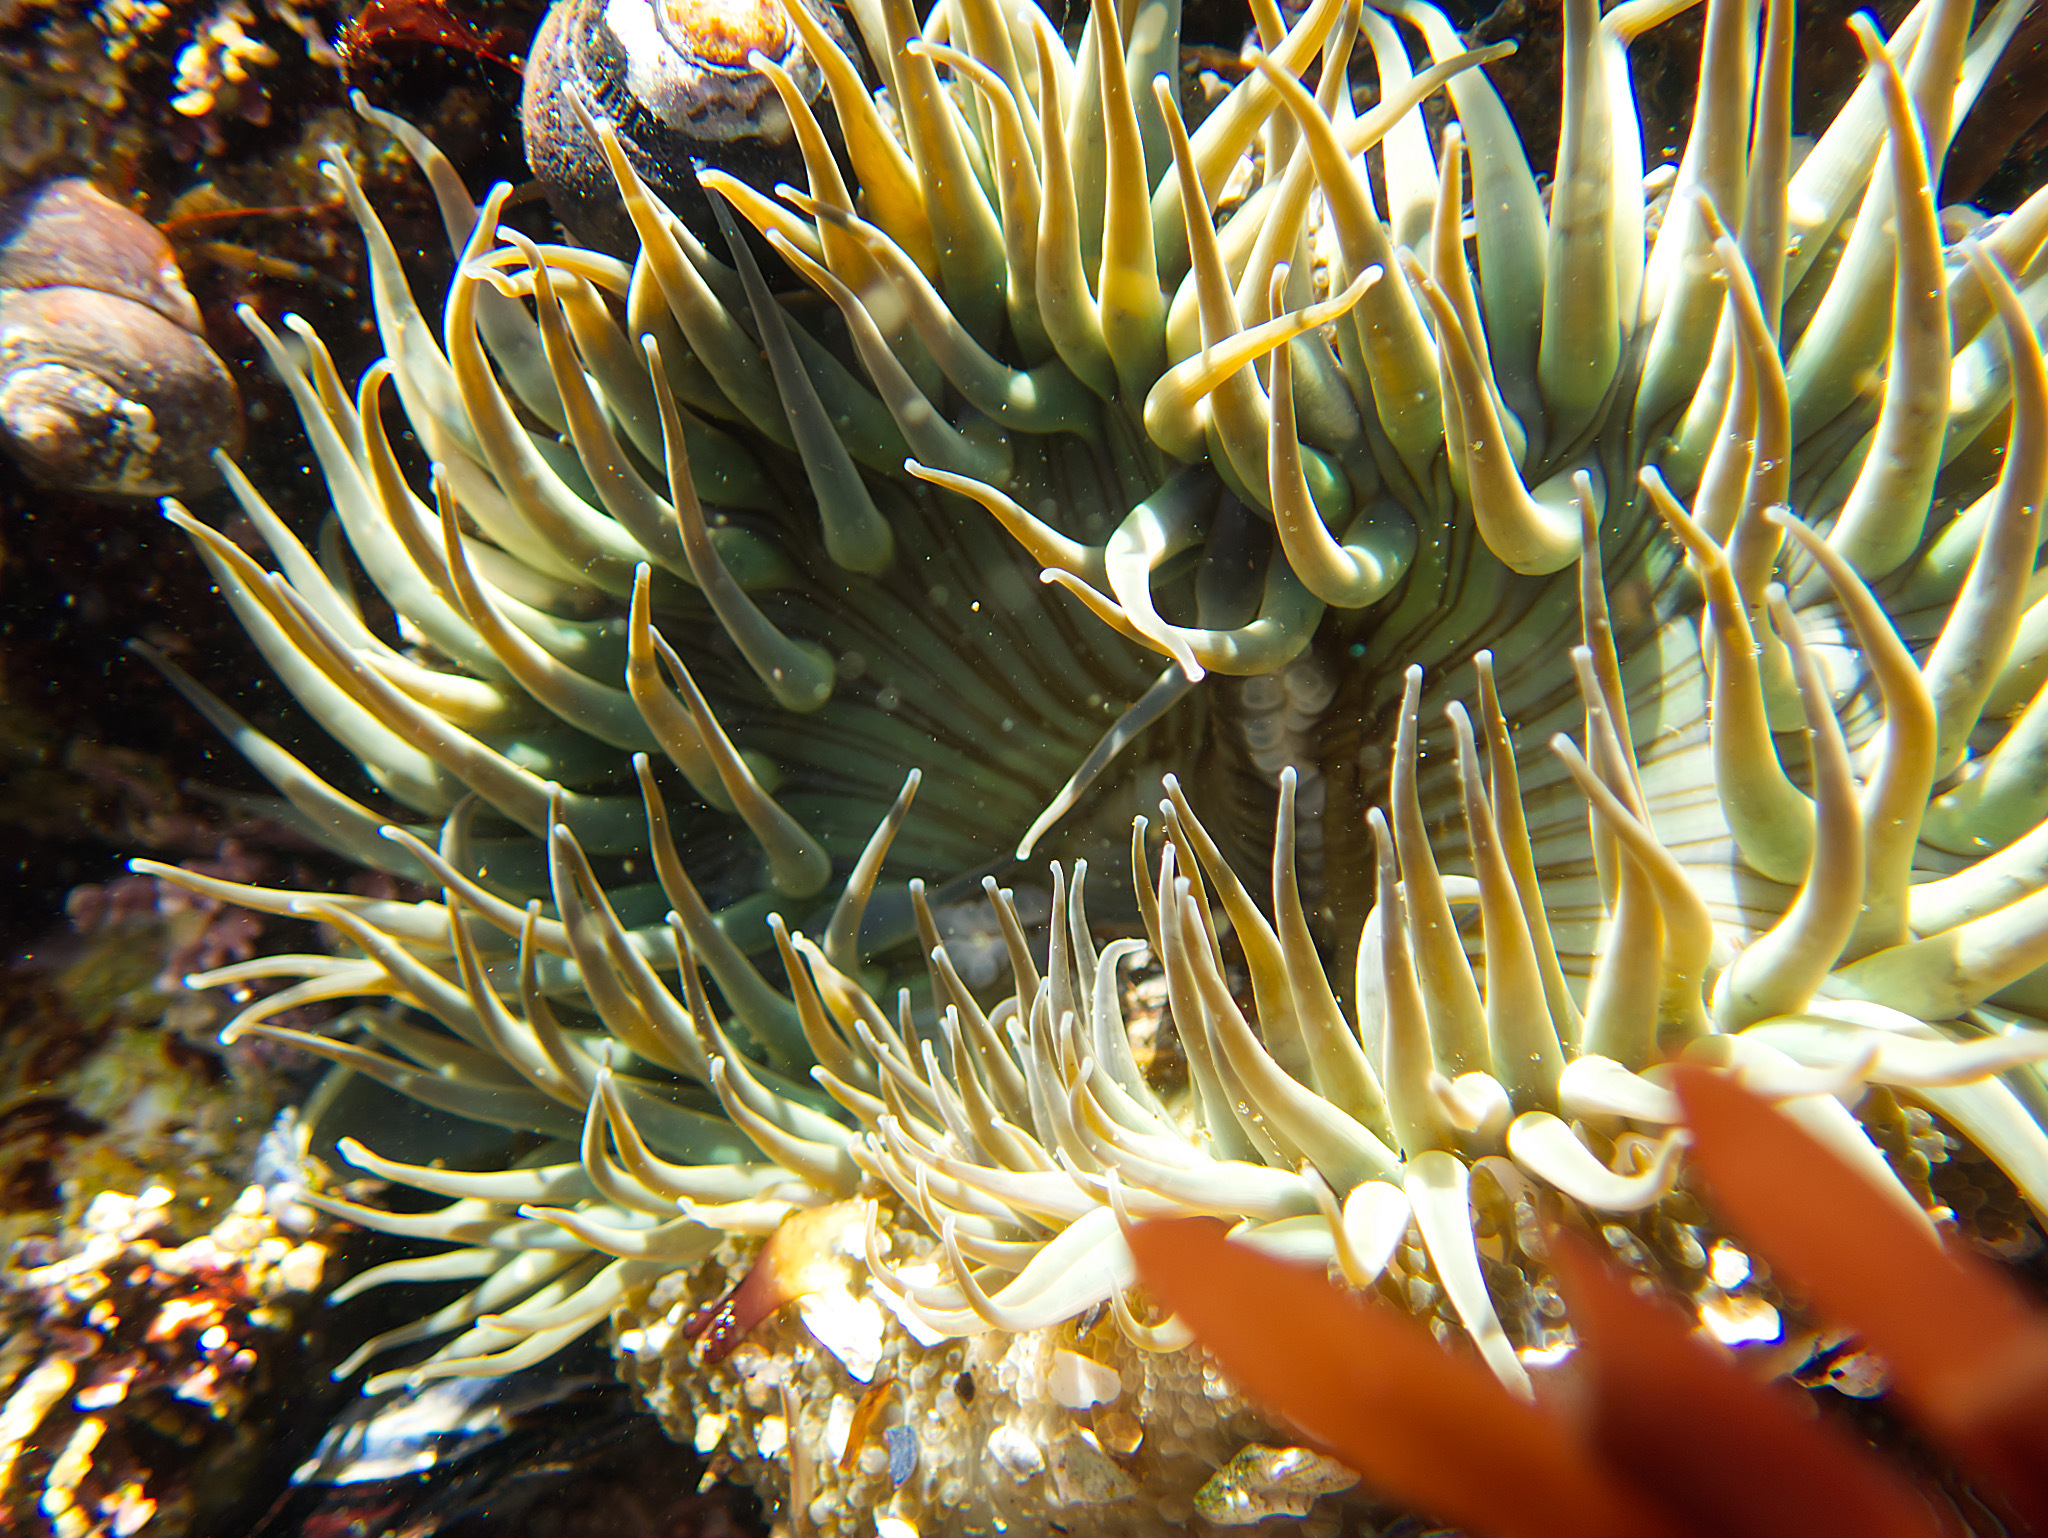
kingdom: Animalia
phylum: Cnidaria
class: Anthozoa
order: Actiniaria
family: Actiniidae
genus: Anthopleura
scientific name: Anthopleura sola
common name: Sun anemone
